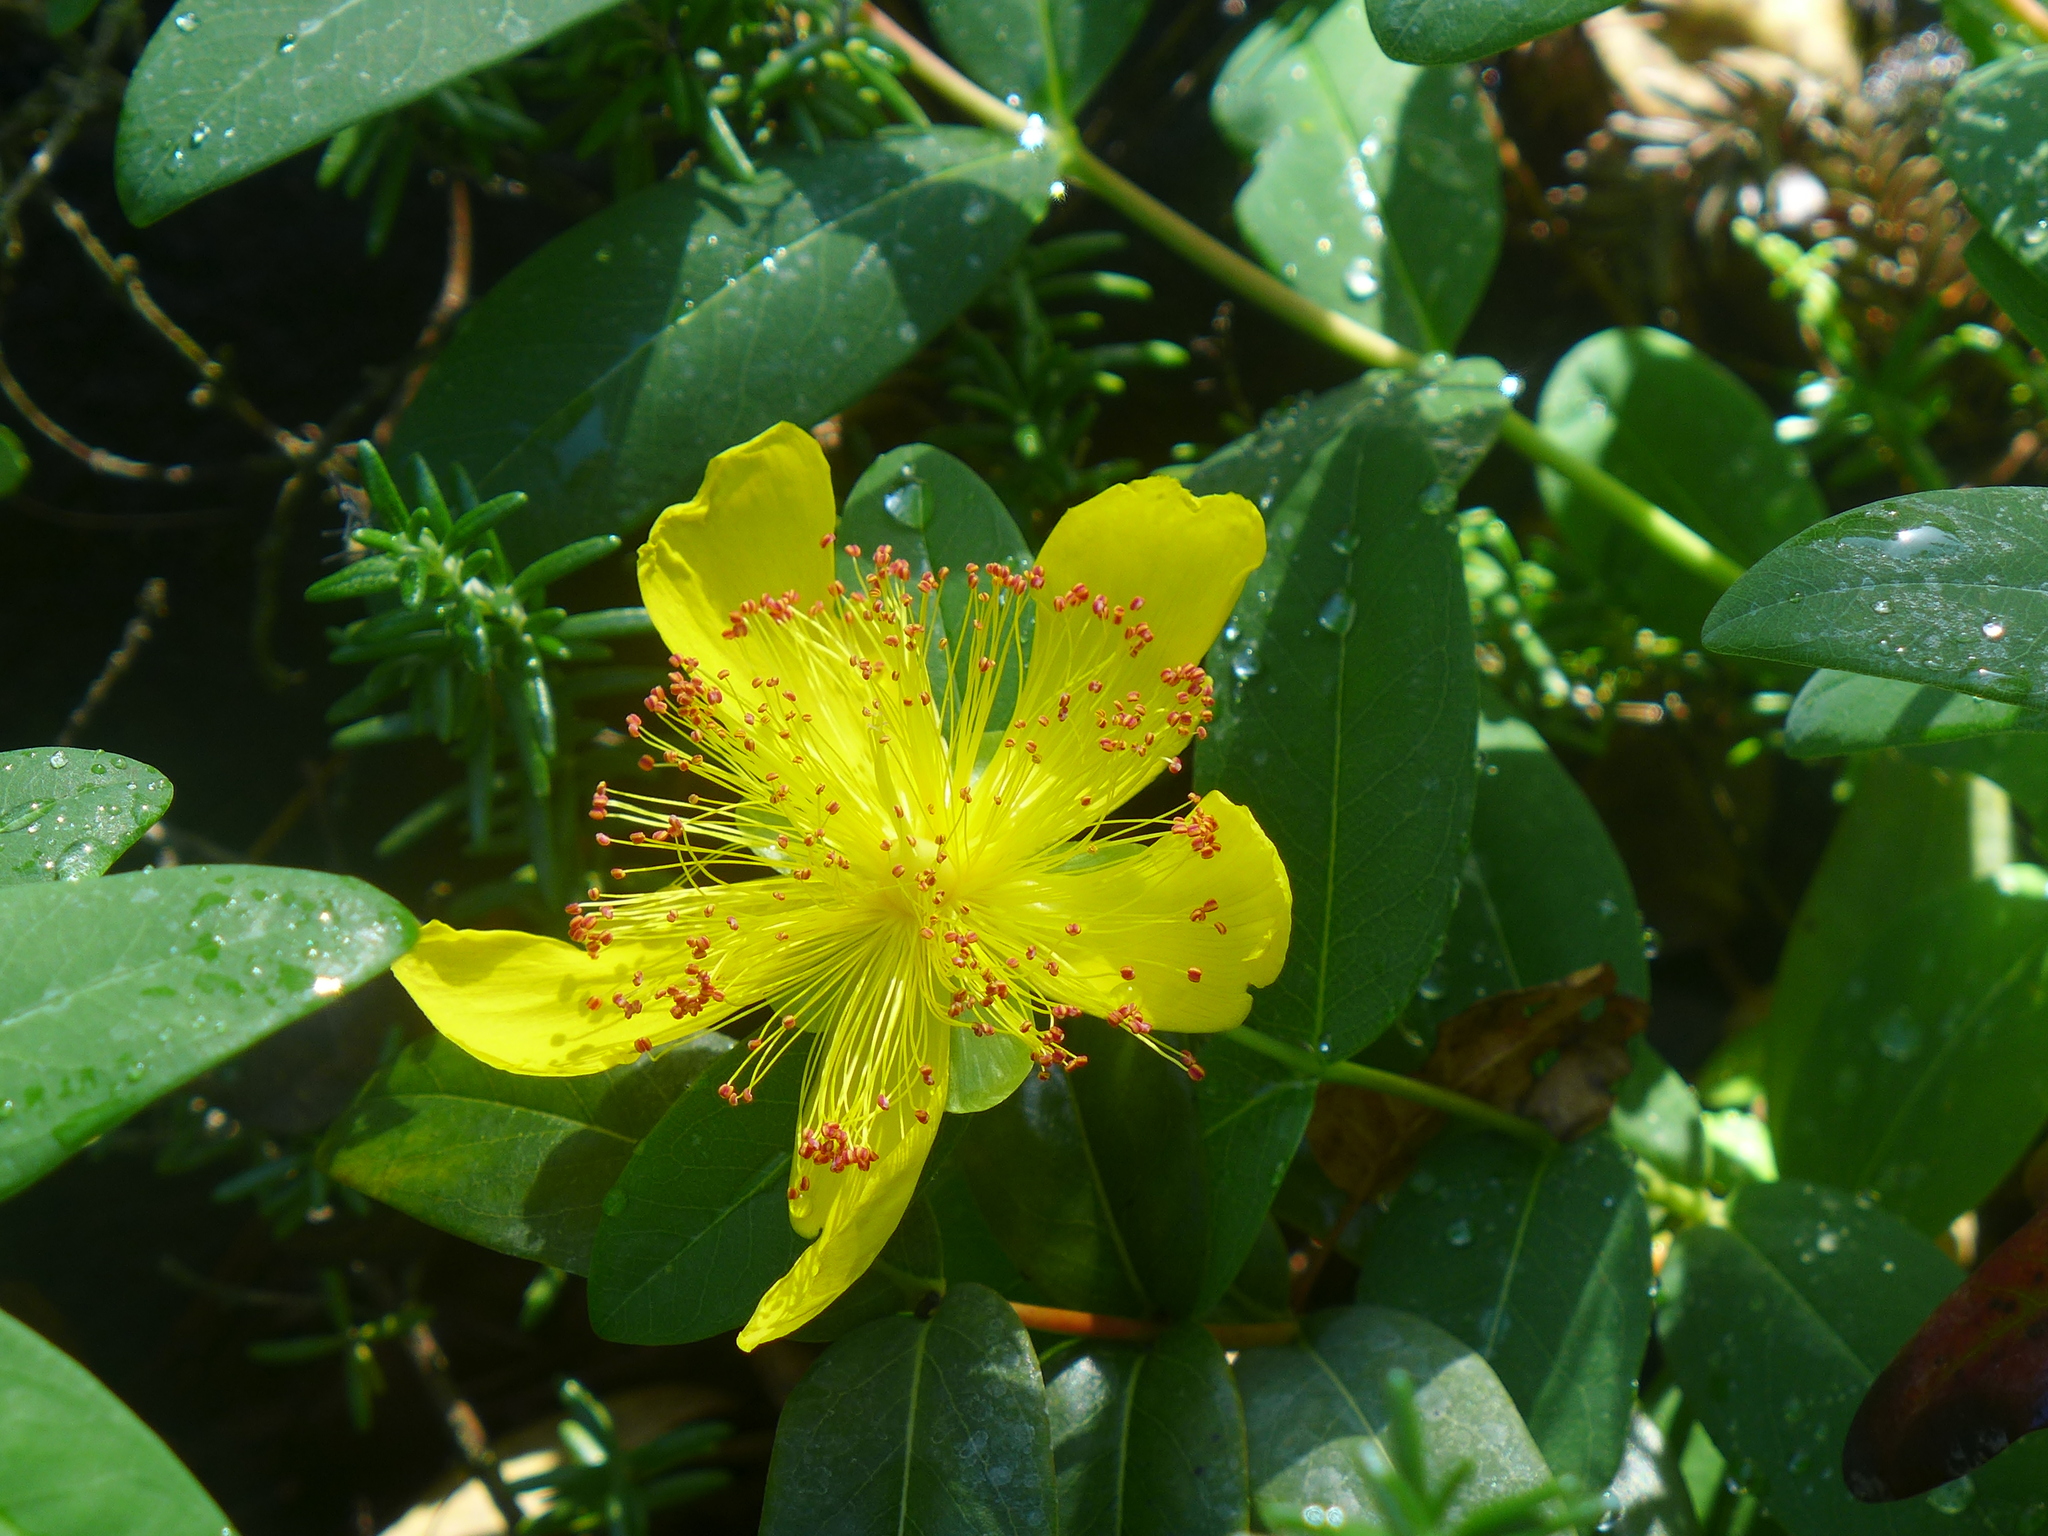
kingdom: Plantae
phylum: Tracheophyta
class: Magnoliopsida
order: Malpighiales
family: Hypericaceae
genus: Hypericum
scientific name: Hypericum calycinum
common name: Rose-of-sharon
